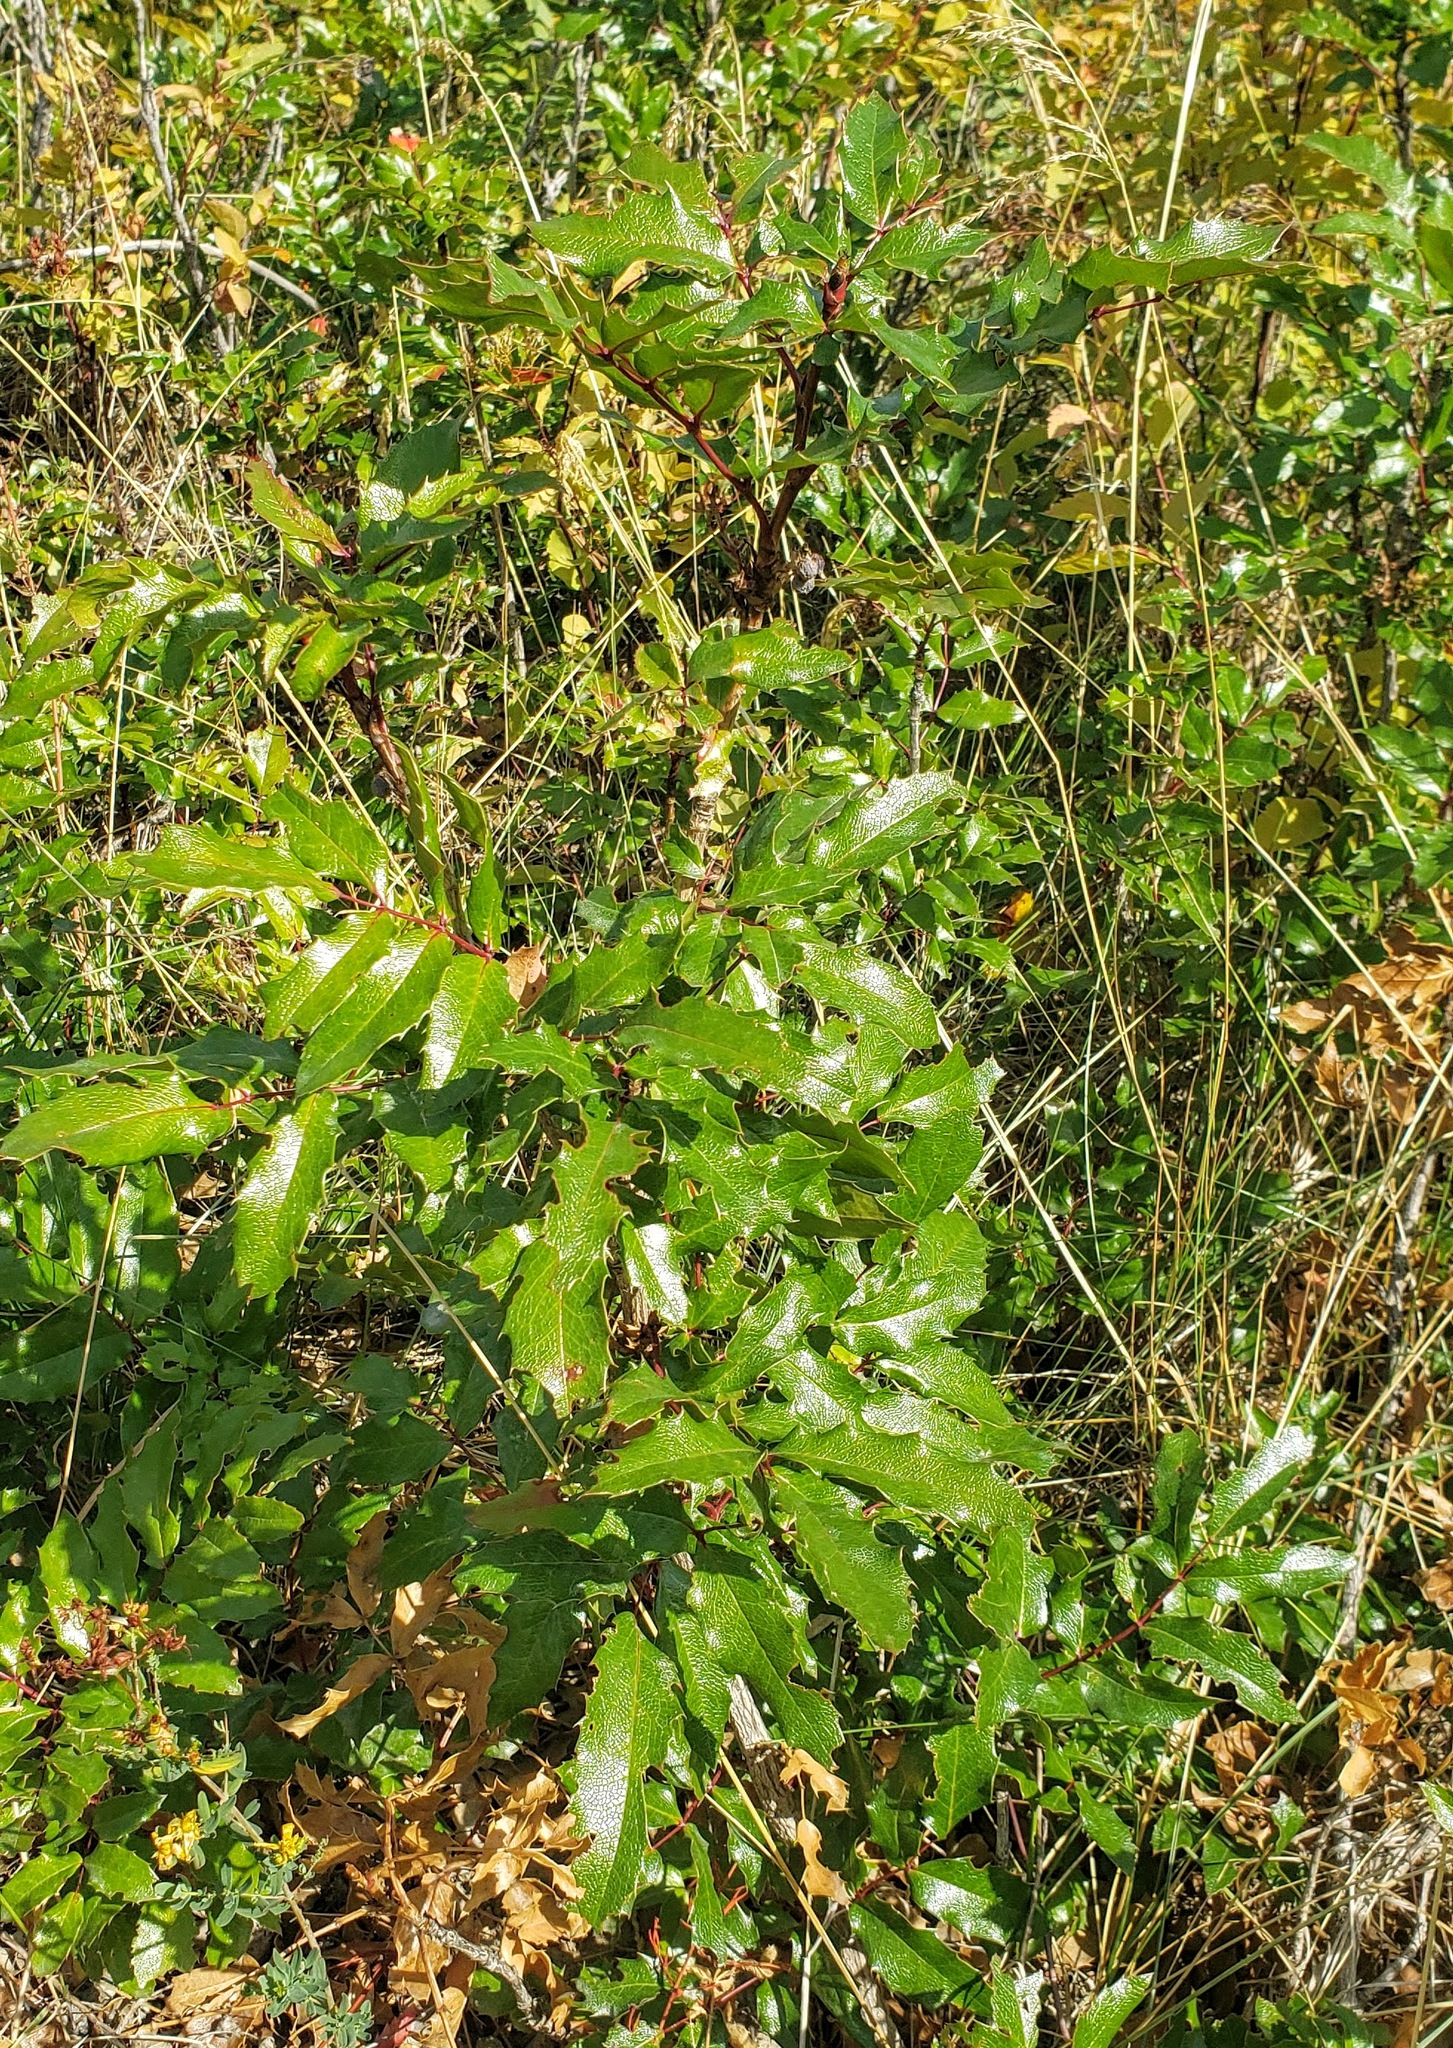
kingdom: Plantae
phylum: Tracheophyta
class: Magnoliopsida
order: Ranunculales
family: Berberidaceae
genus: Mahonia
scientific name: Mahonia aquifolium
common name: Oregon-grape
